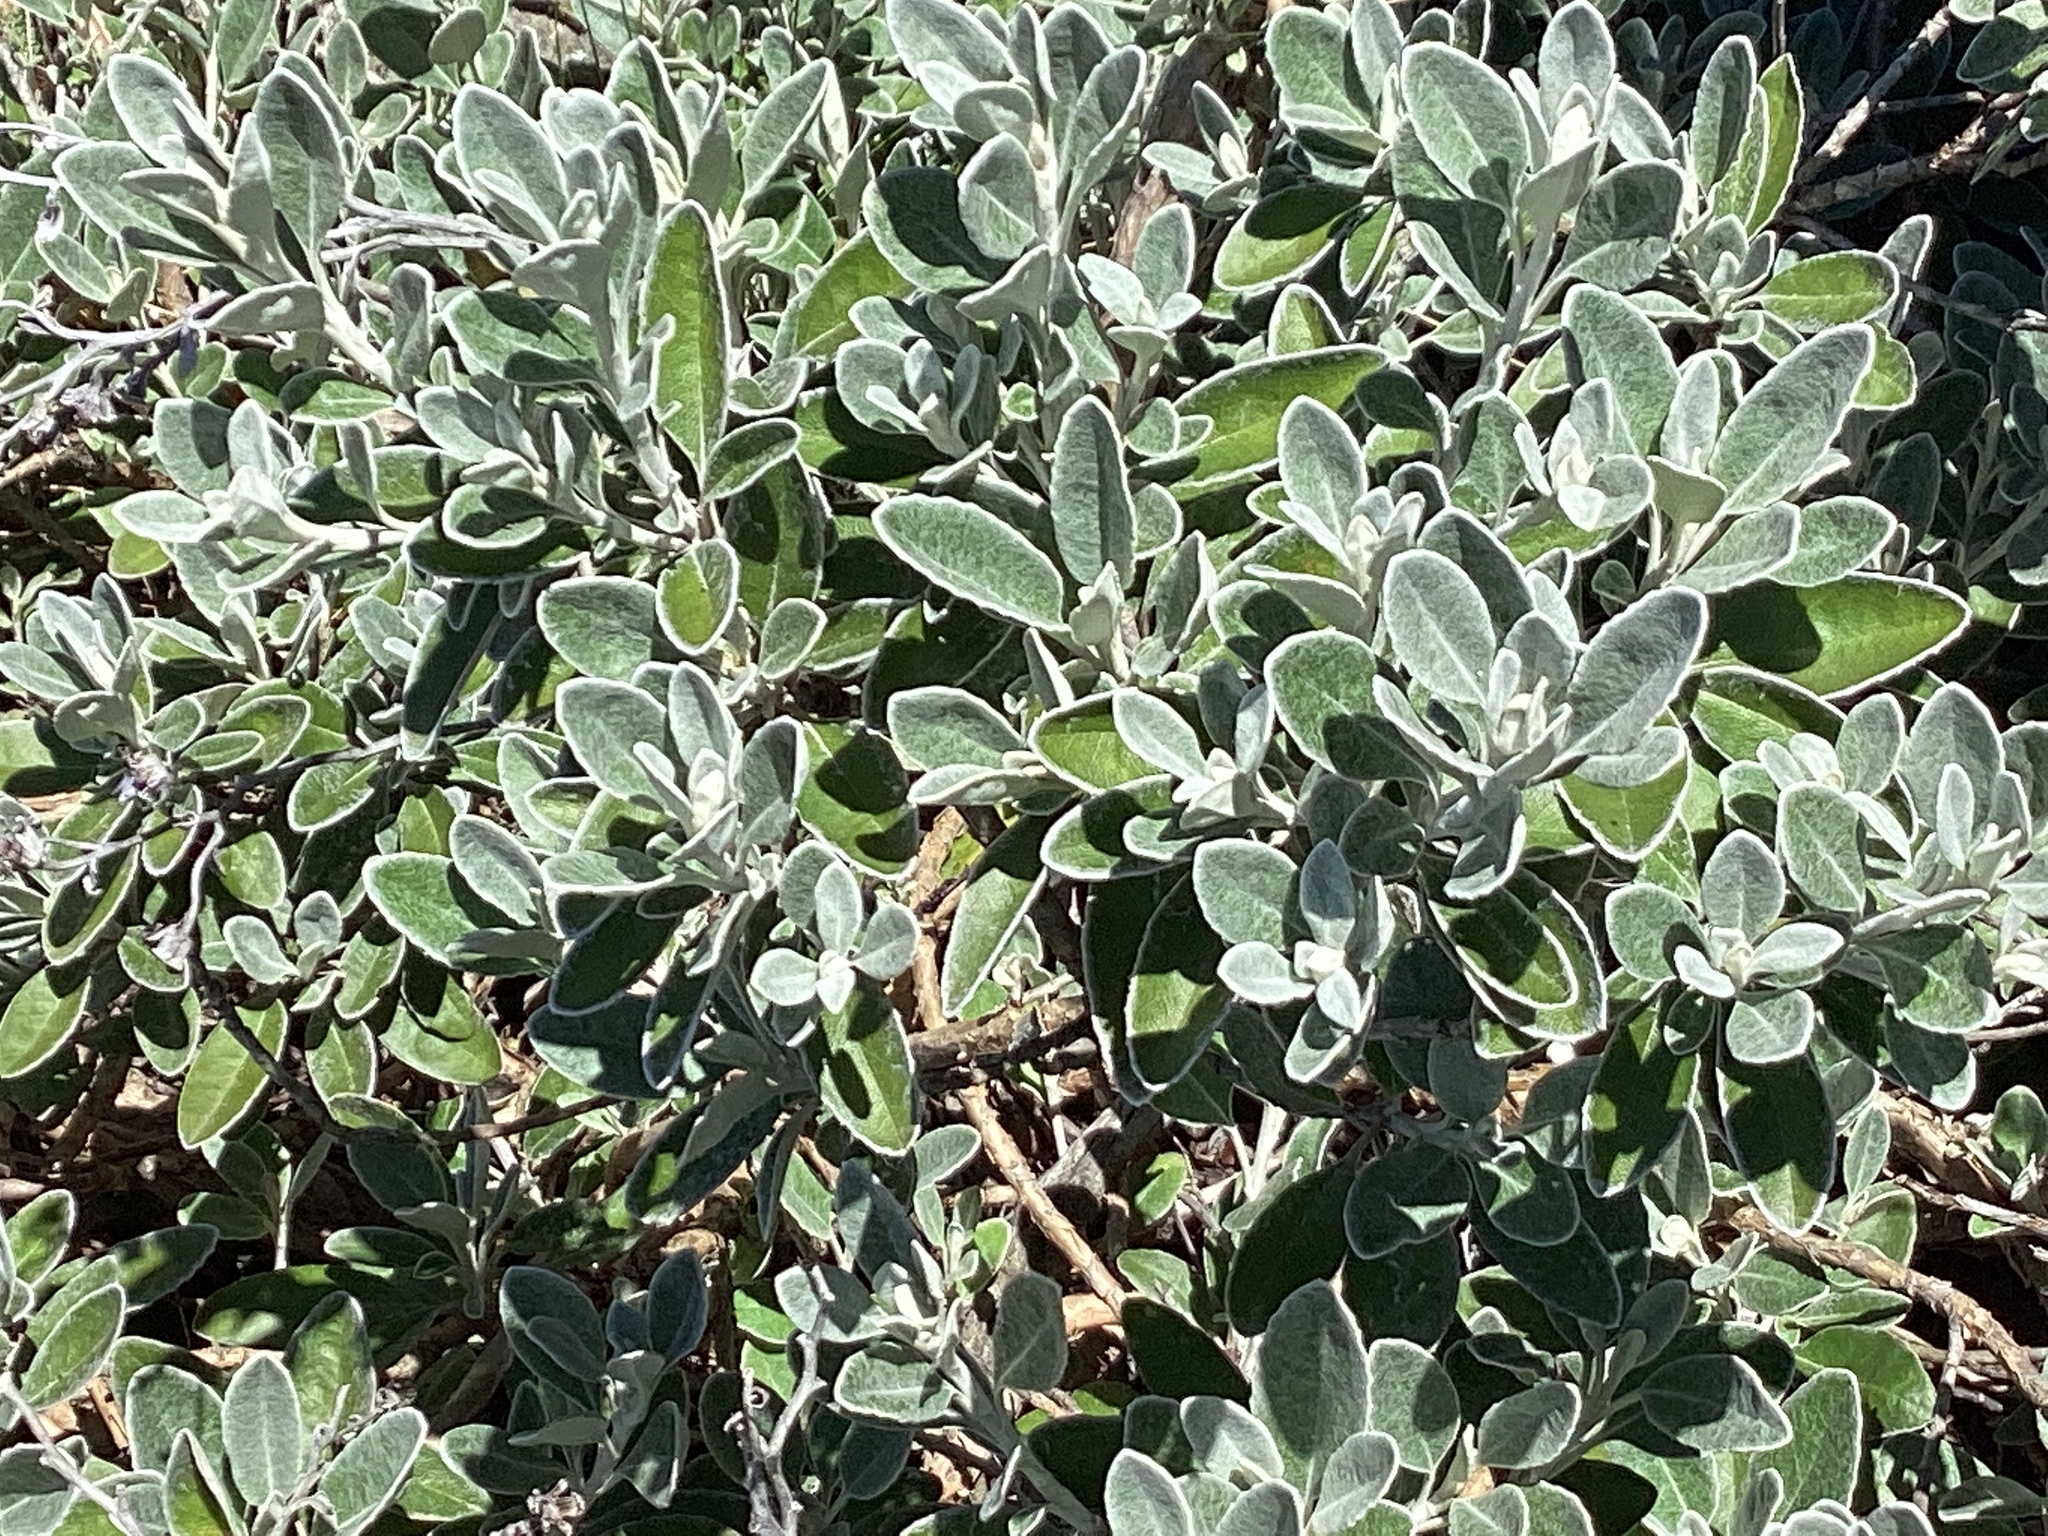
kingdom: Plantae
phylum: Tracheophyta
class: Magnoliopsida
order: Asterales
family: Asteraceae
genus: Brachyglottis
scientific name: Brachyglottis greyi
